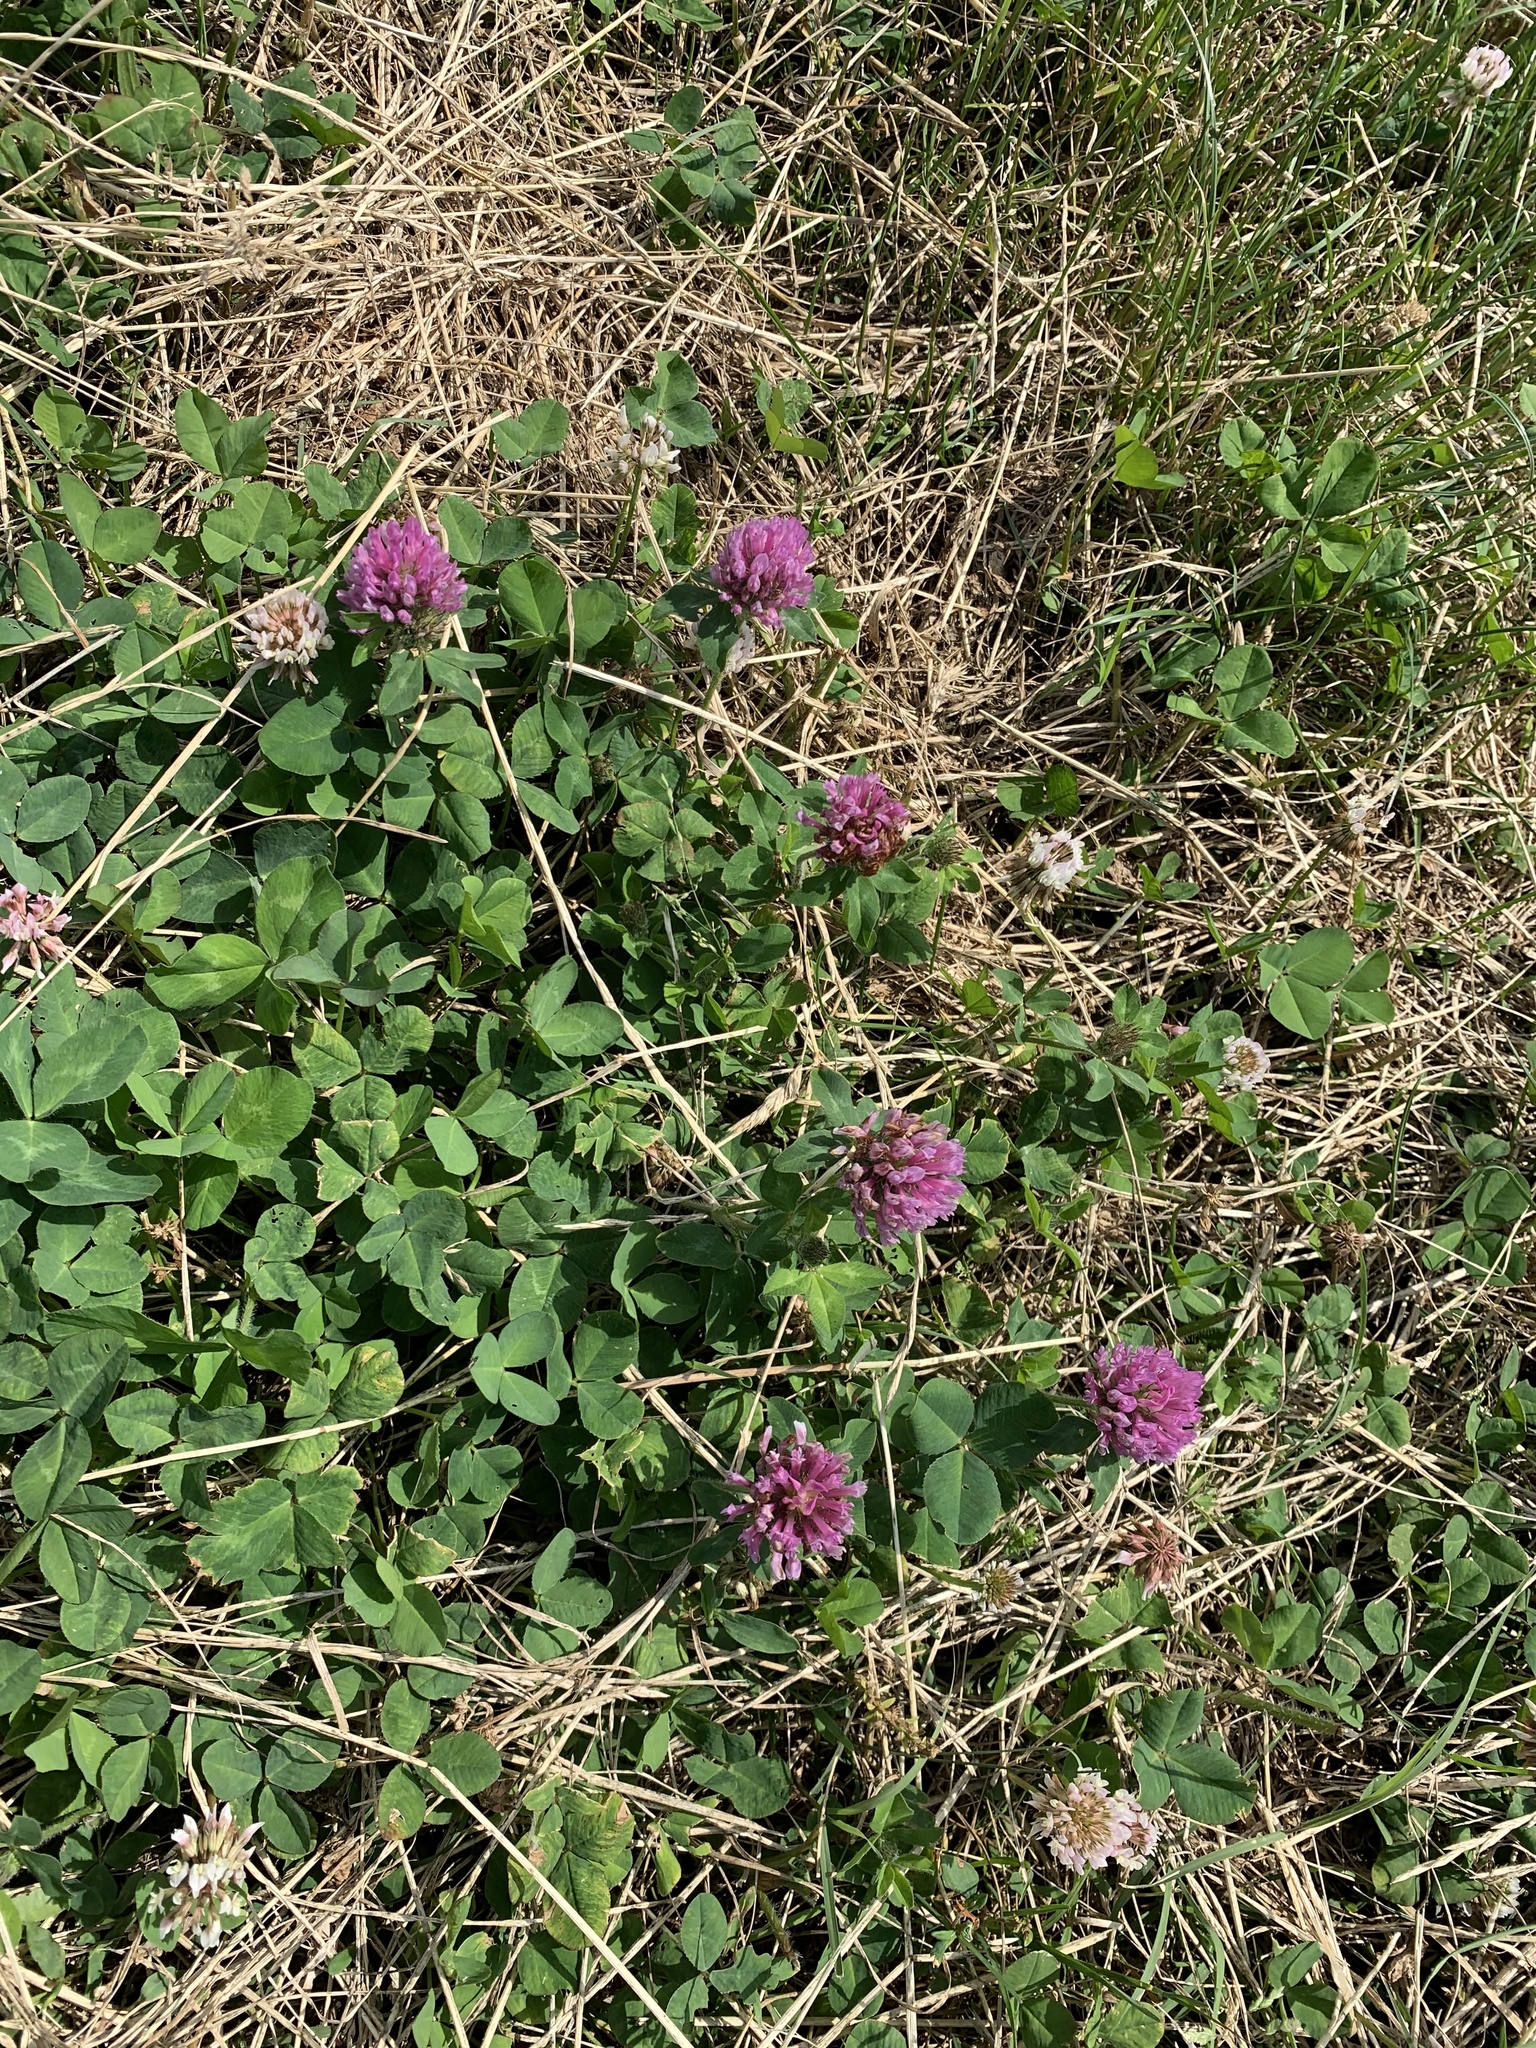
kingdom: Plantae
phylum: Tracheophyta
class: Magnoliopsida
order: Fabales
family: Fabaceae
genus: Trifolium
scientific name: Trifolium pratense
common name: Red clover
